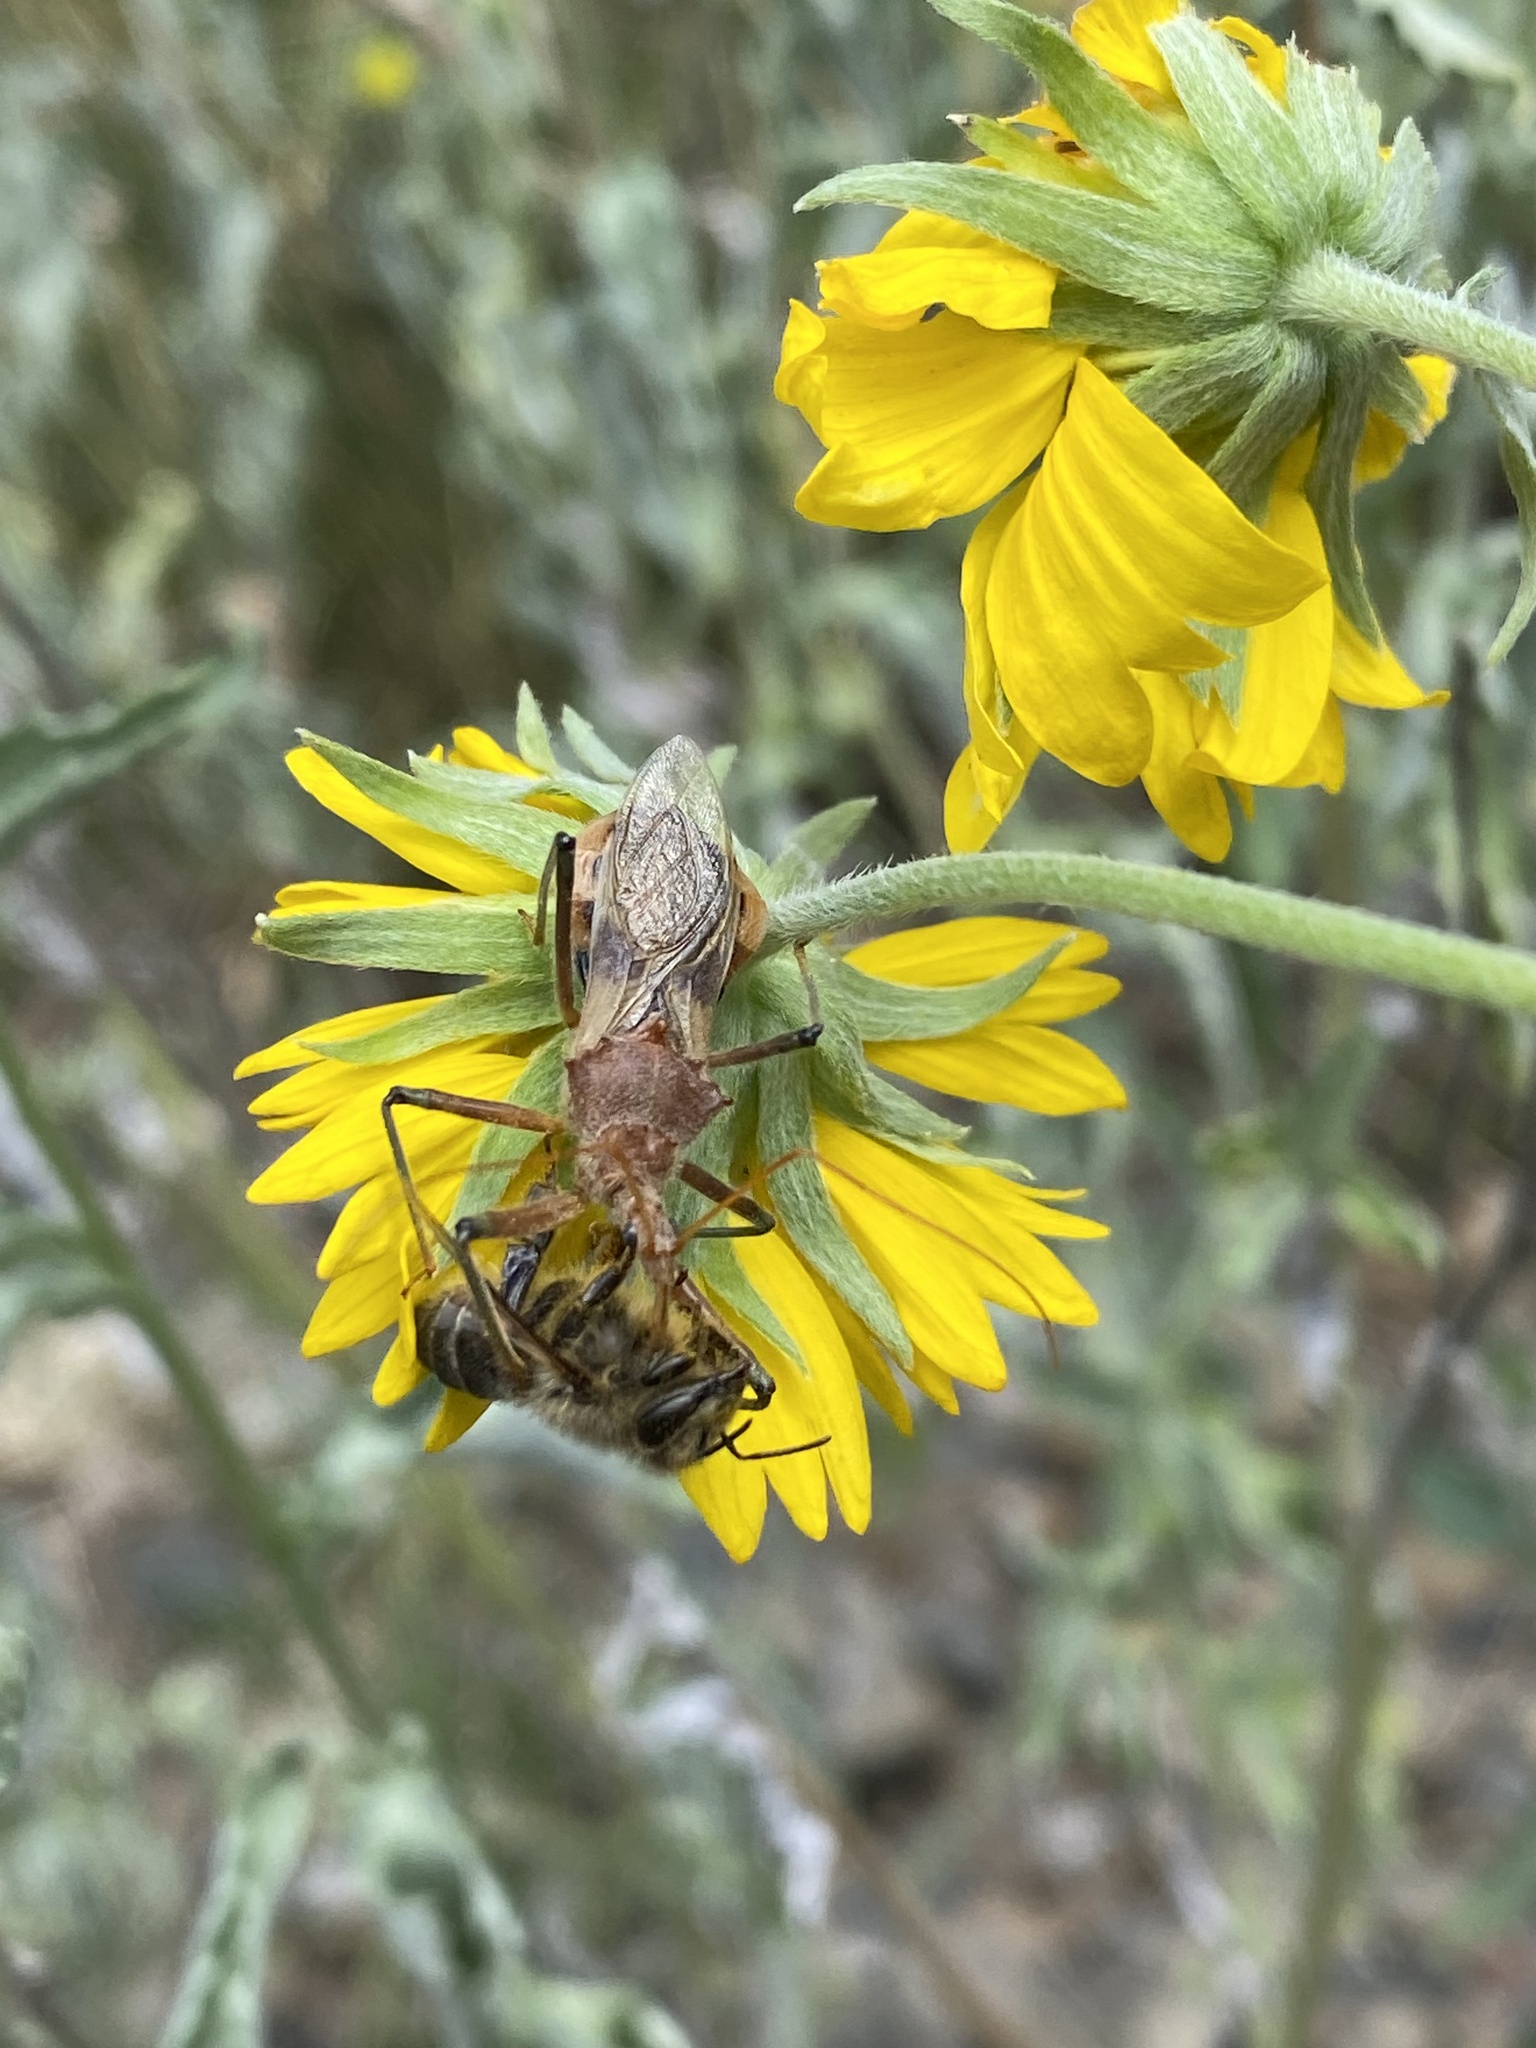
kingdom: Animalia
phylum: Arthropoda
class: Insecta
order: Hemiptera
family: Reduviidae
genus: Pristhesancus
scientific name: Pristhesancus plagipennis
